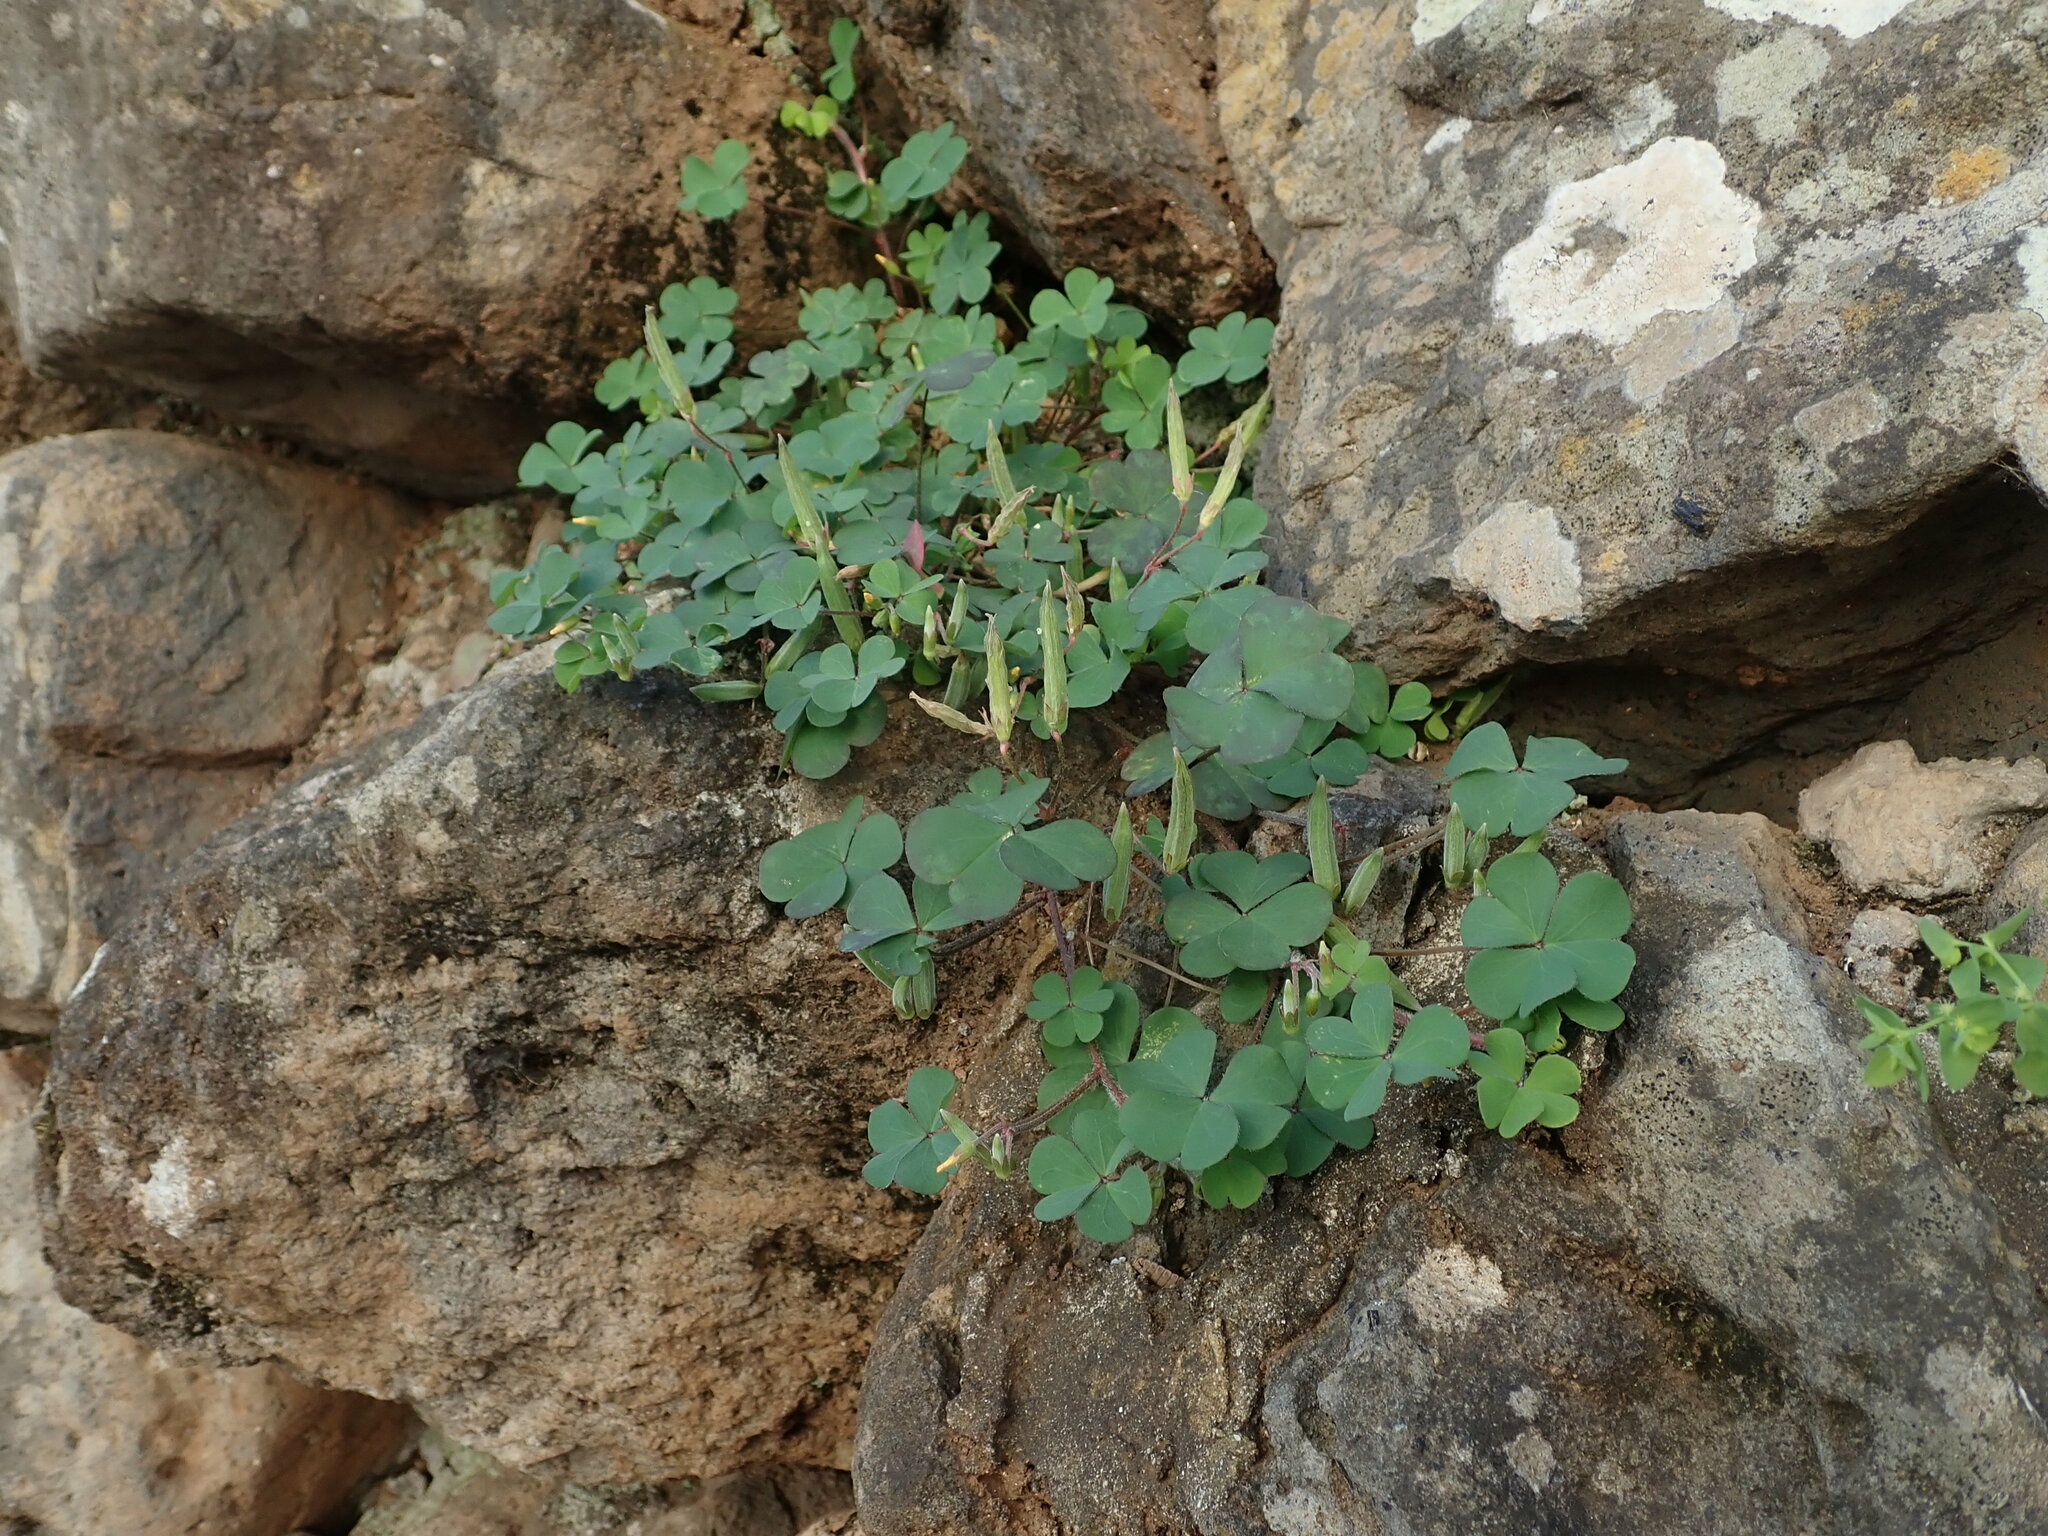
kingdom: Plantae
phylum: Tracheophyta
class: Magnoliopsida
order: Oxalidales
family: Oxalidaceae
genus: Oxalis
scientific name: Oxalis corniculata
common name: Procumbent yellow-sorrel
